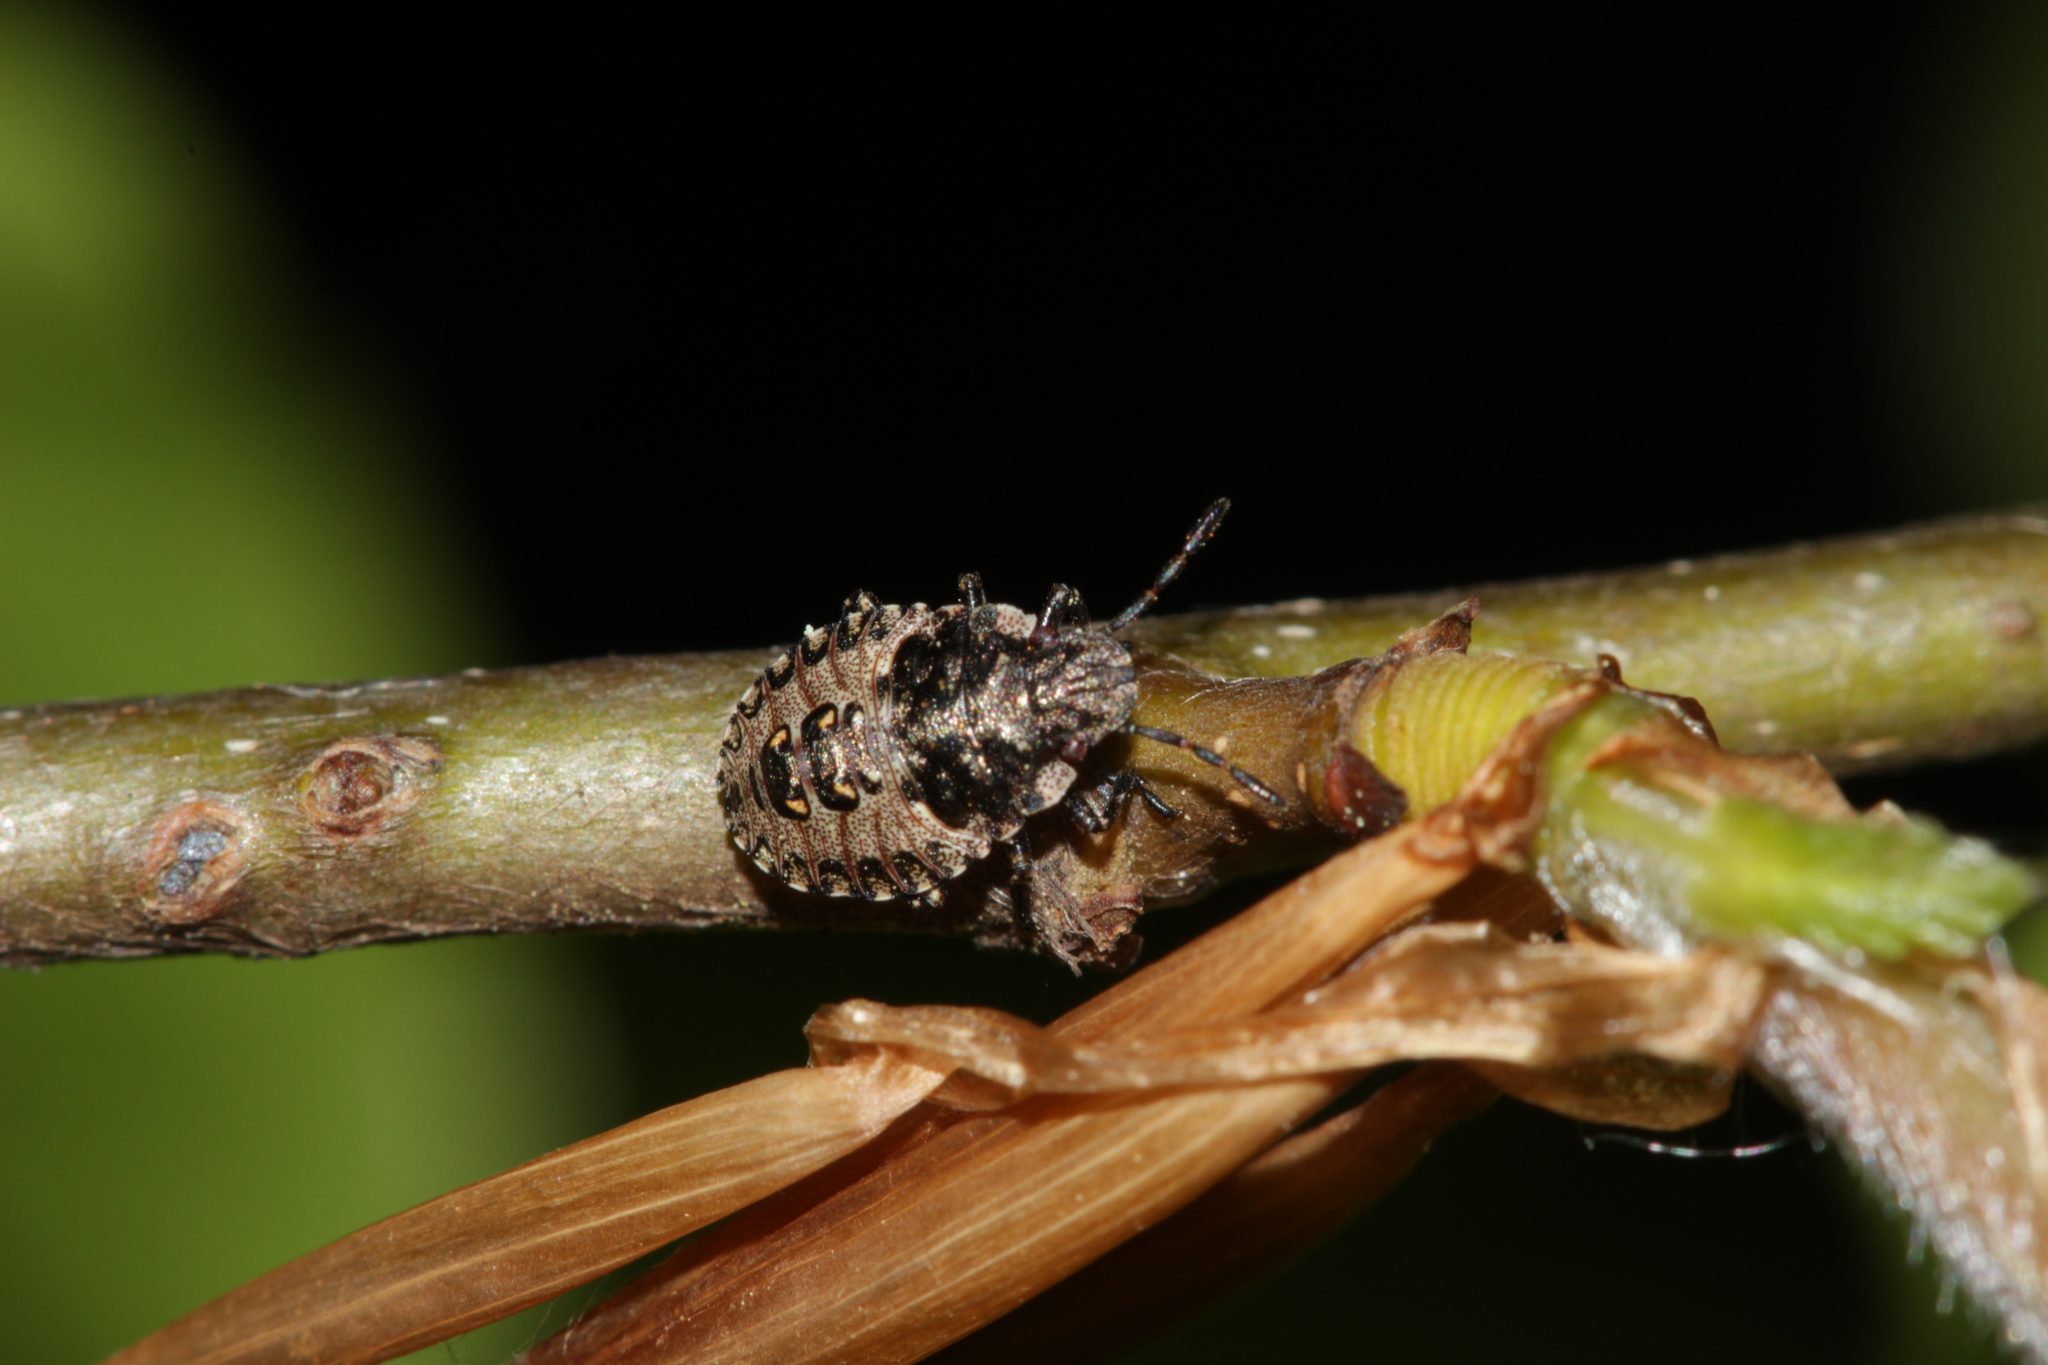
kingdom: Animalia
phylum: Arthropoda
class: Insecta
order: Hemiptera
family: Pentatomidae
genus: Pentatoma
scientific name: Pentatoma rufipes
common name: Forest bug
